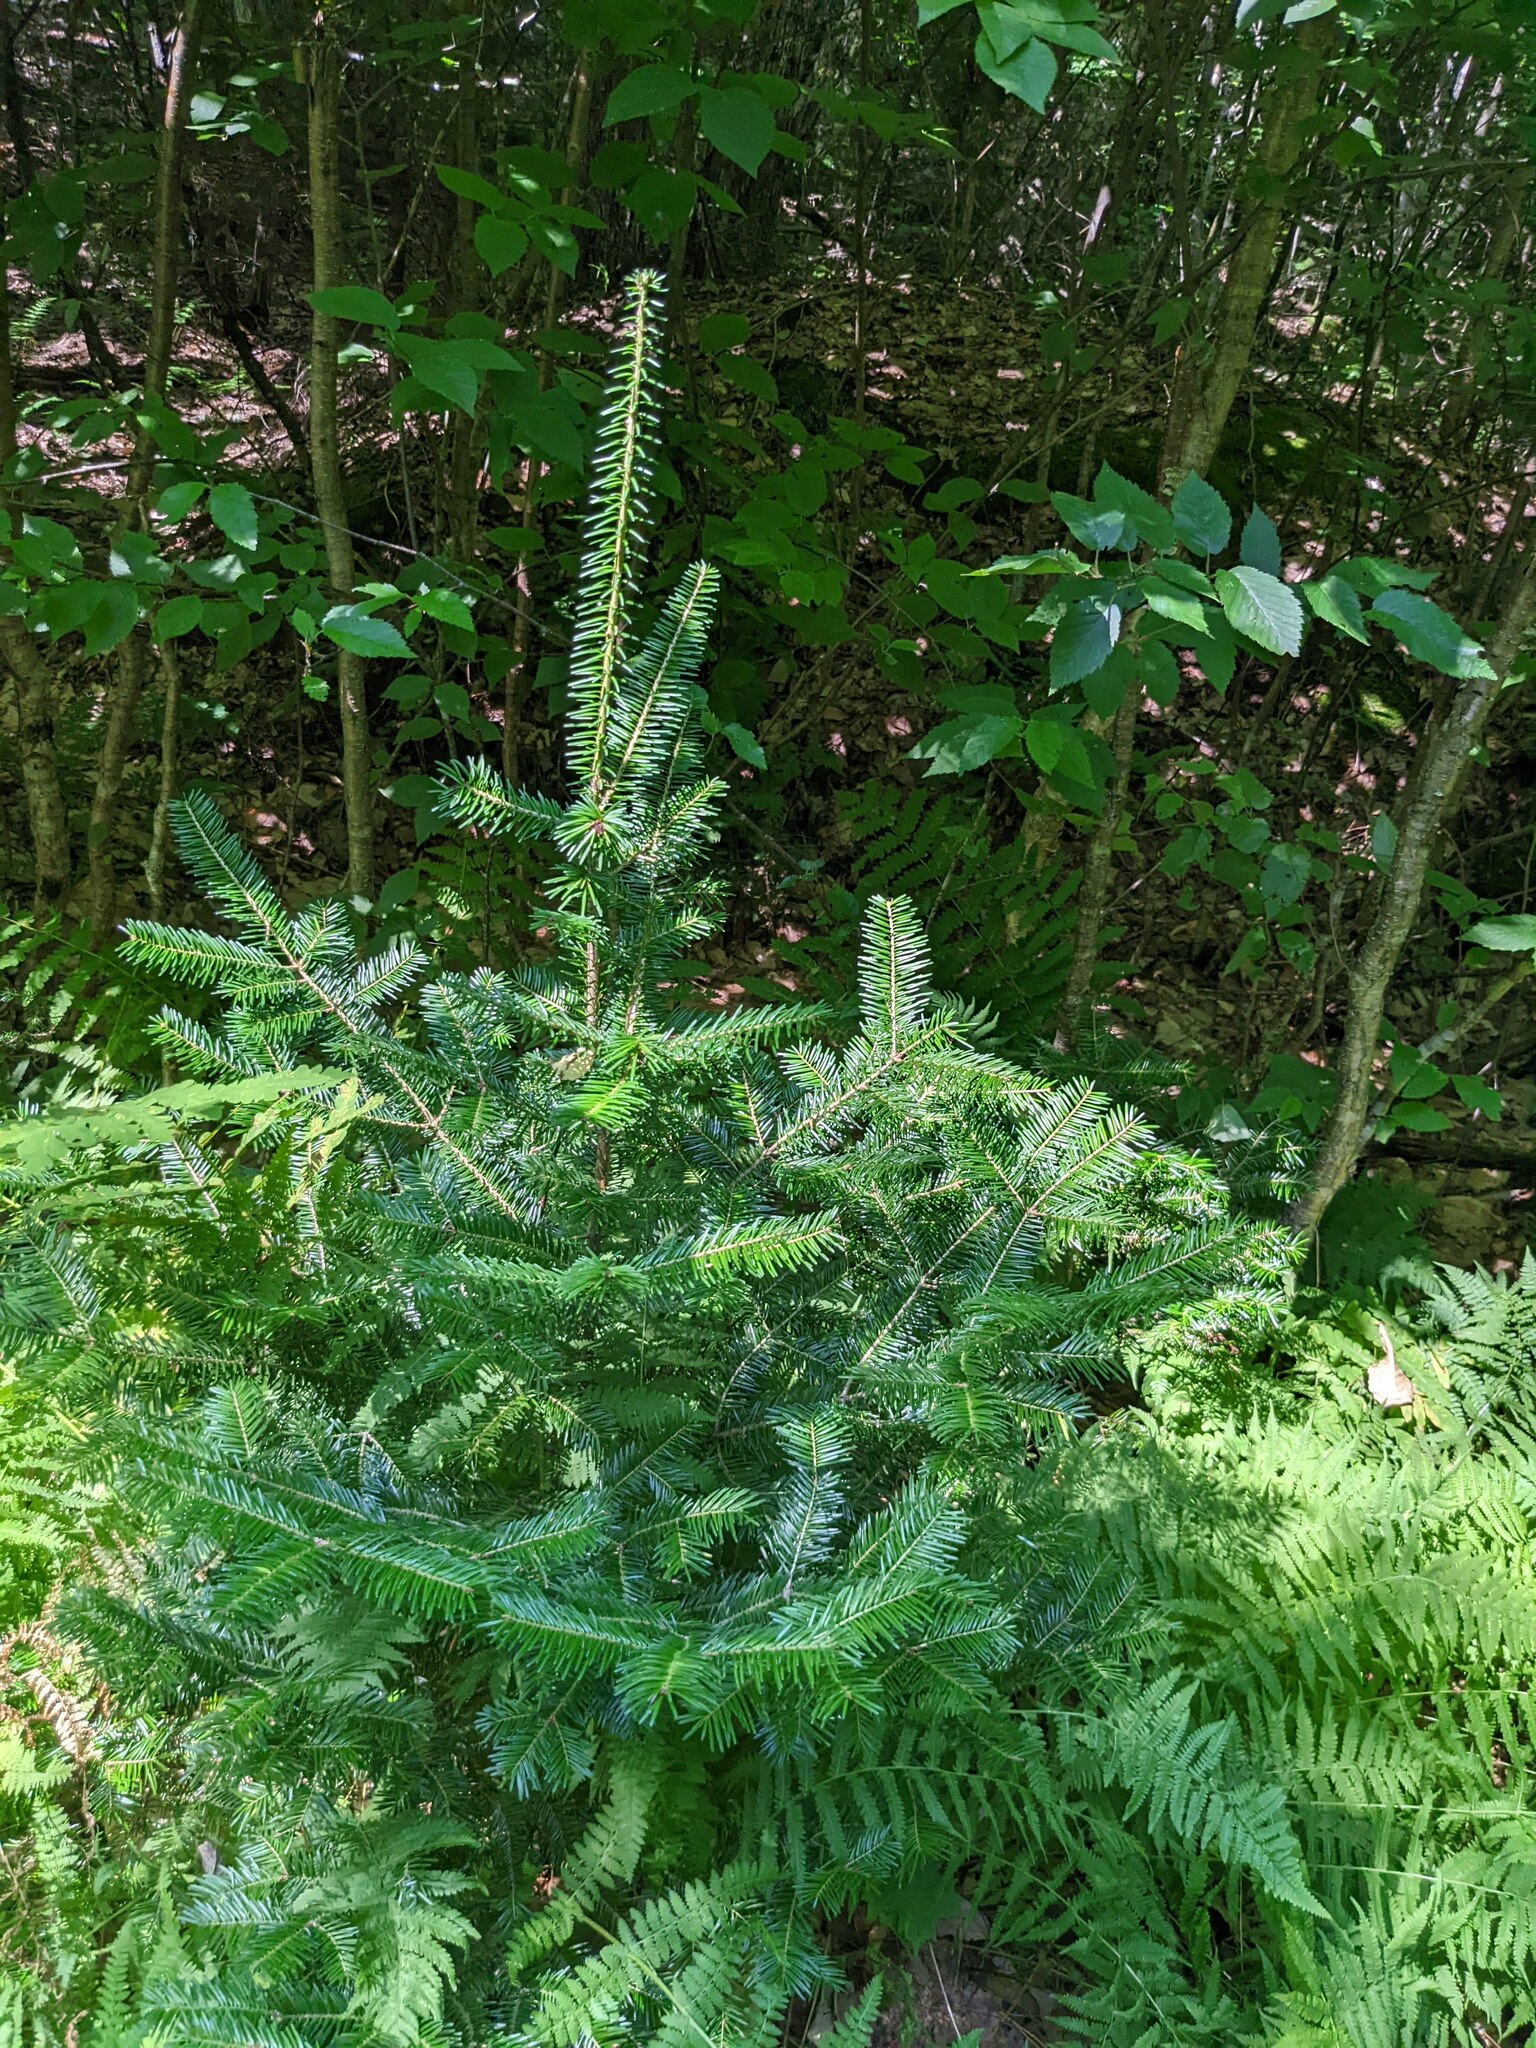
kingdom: Plantae
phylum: Tracheophyta
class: Pinopsida
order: Pinales
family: Pinaceae
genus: Abies
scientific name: Abies balsamea
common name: Balsam fir
